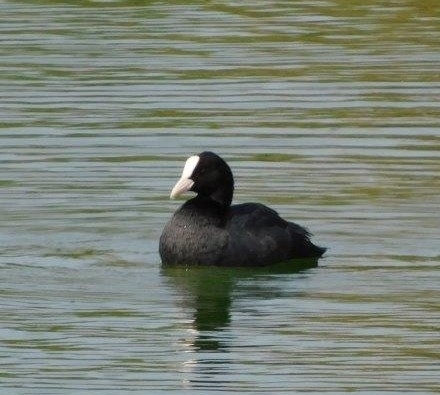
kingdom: Animalia
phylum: Chordata
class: Aves
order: Gruiformes
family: Rallidae
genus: Fulica
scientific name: Fulica atra
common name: Eurasian coot
